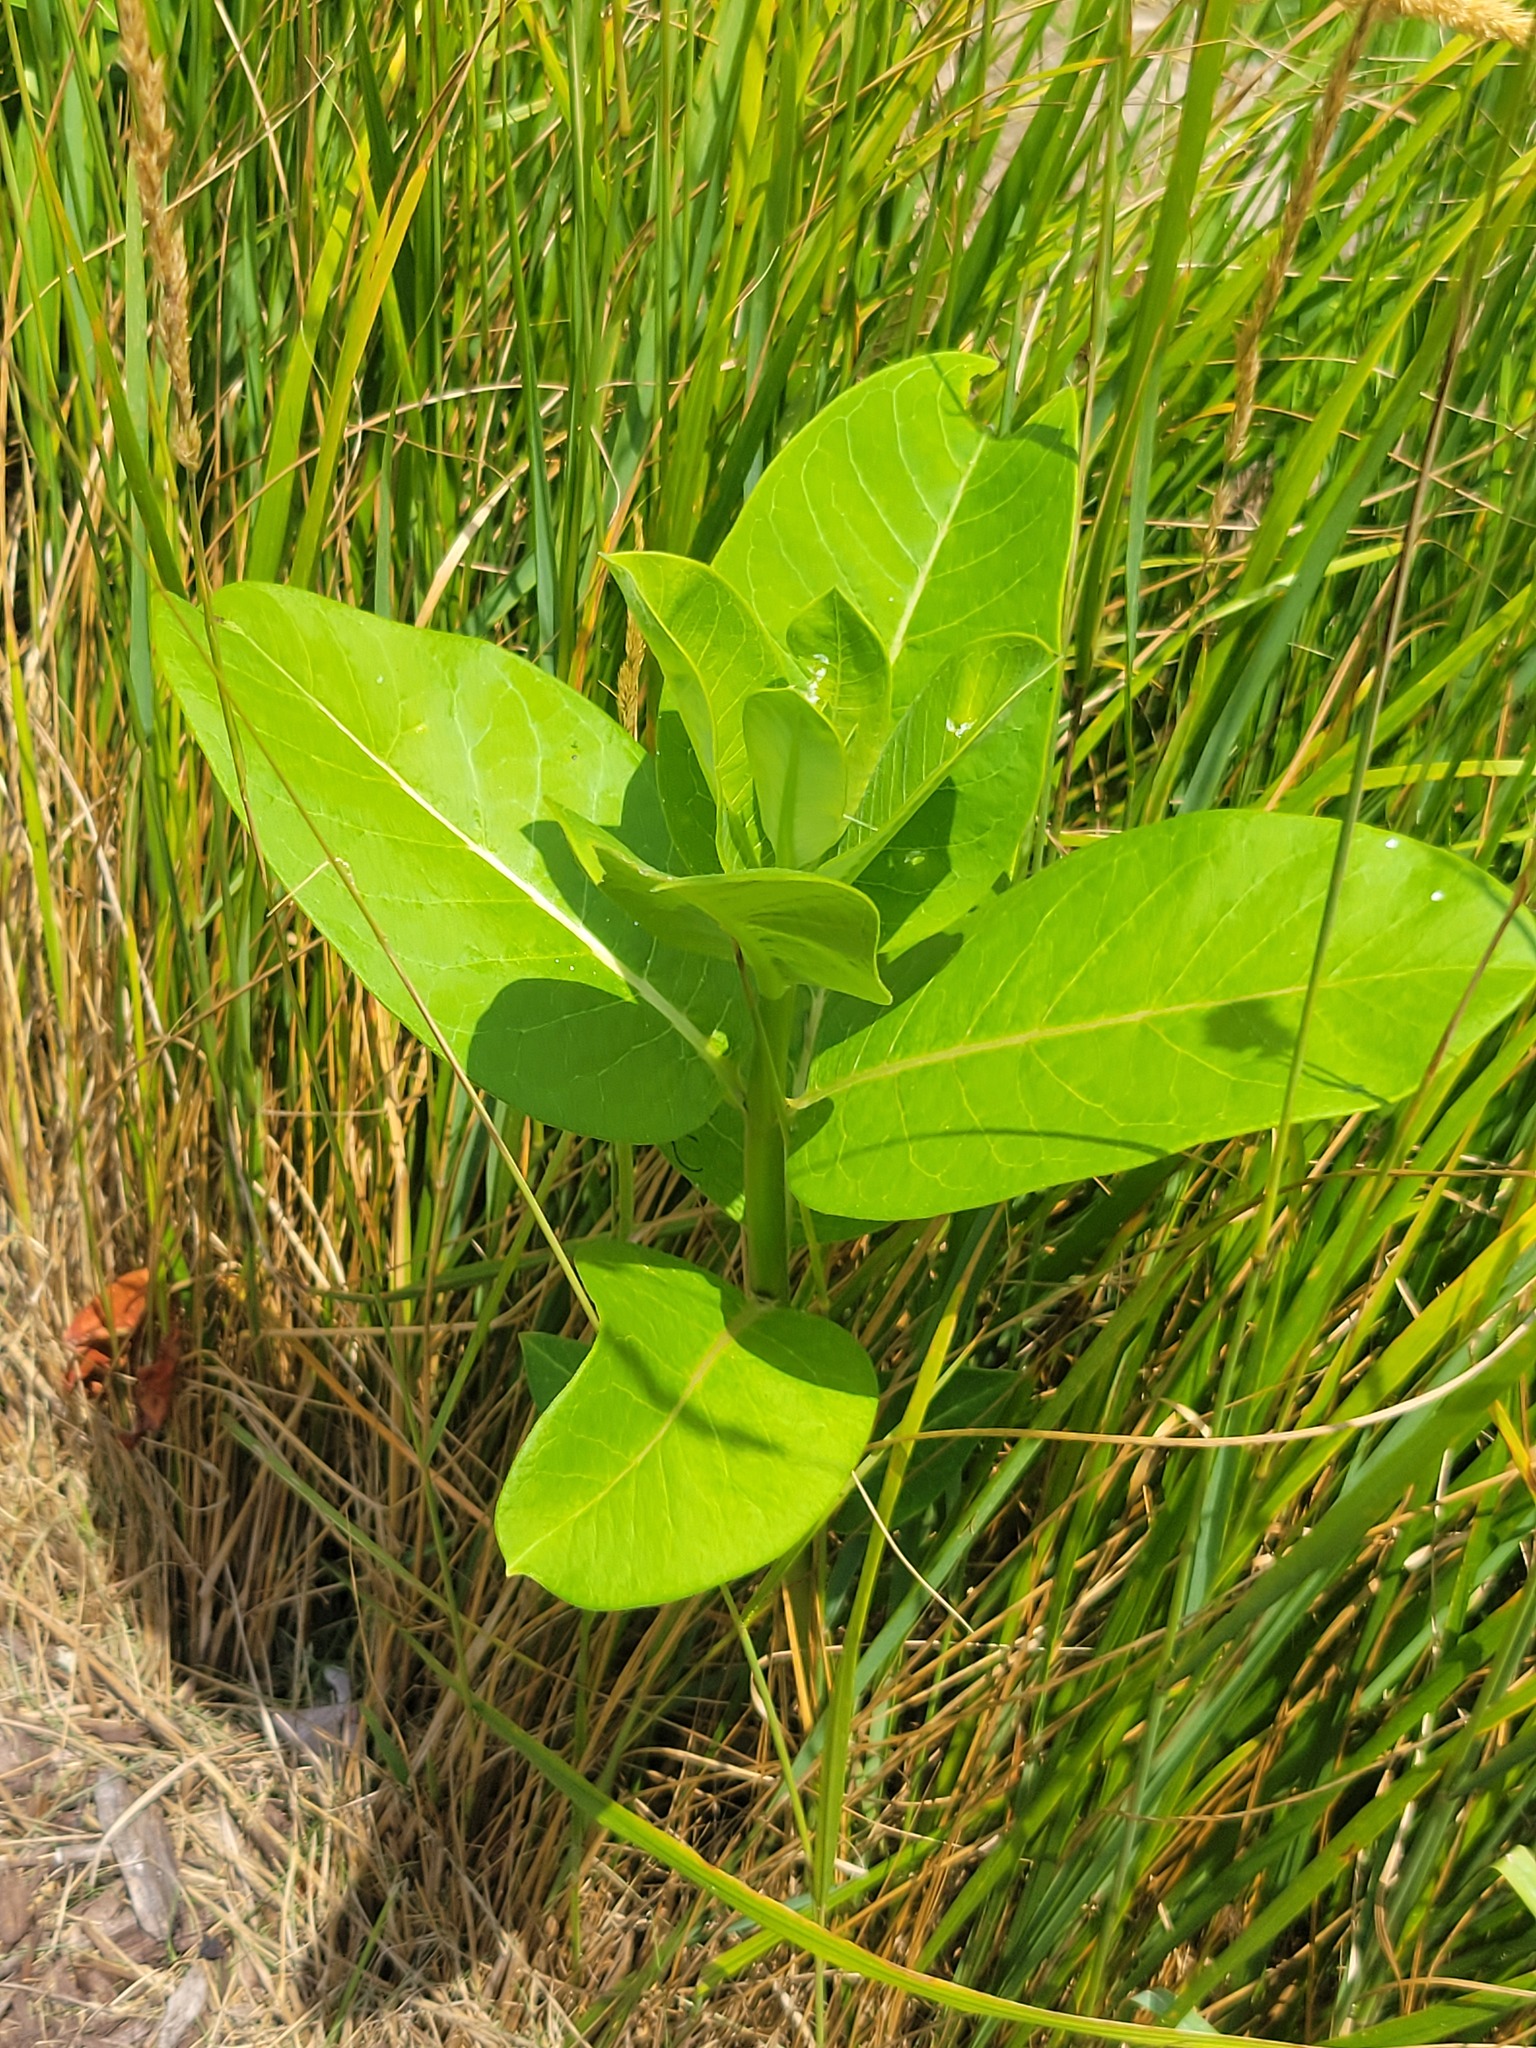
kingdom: Plantae
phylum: Tracheophyta
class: Magnoliopsida
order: Gentianales
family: Apocynaceae
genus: Asclepias
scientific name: Asclepias syriaca
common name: Common milkweed
